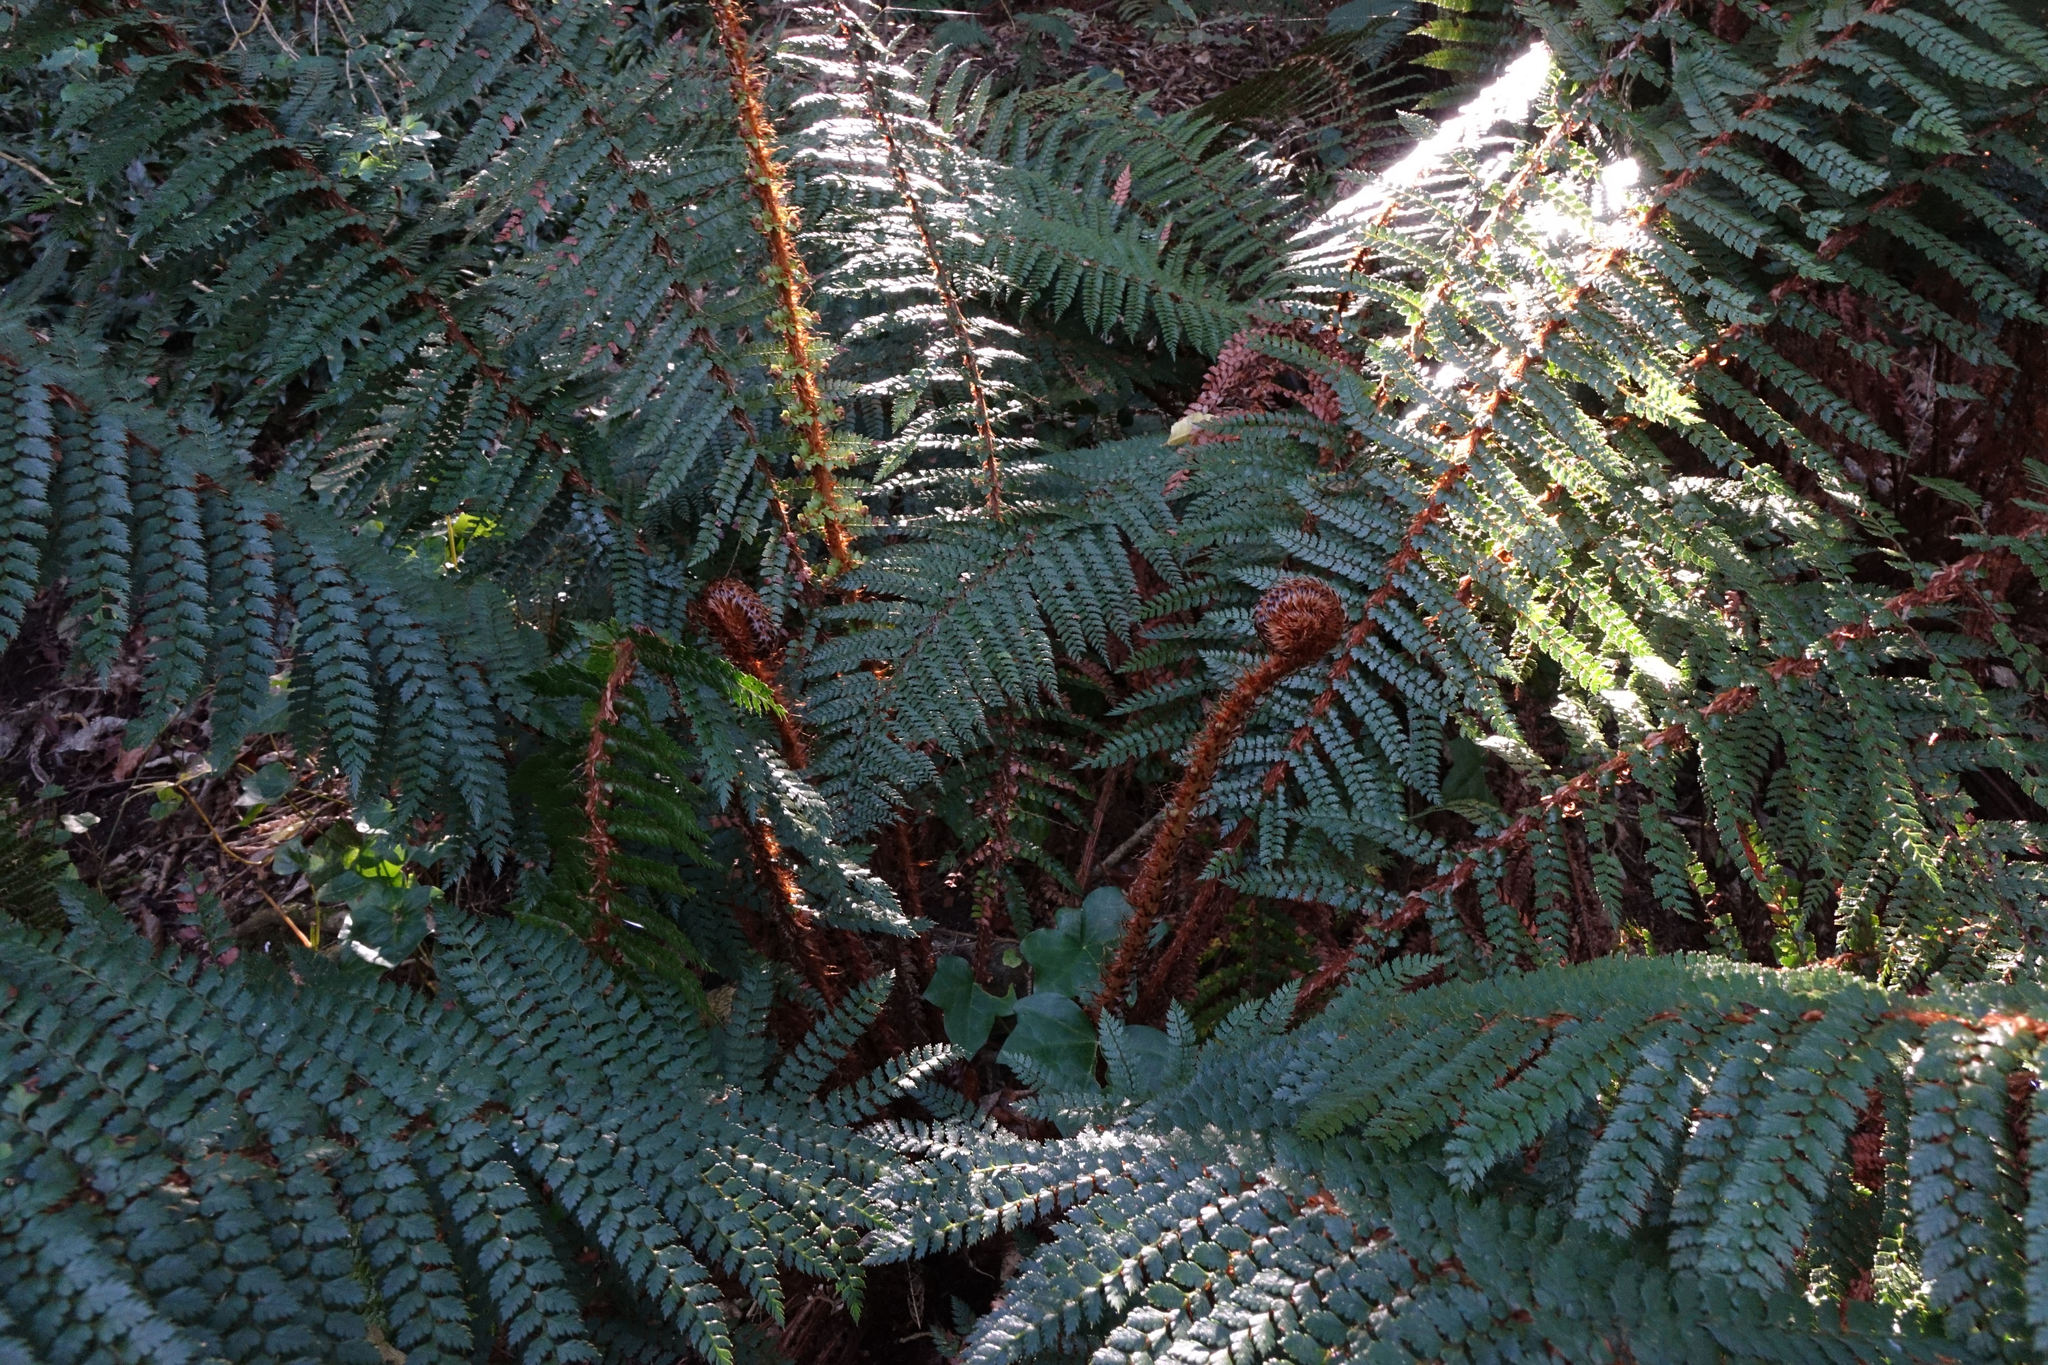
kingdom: Plantae
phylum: Tracheophyta
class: Polypodiopsida
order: Polypodiales
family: Dryopteridaceae
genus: Polystichum
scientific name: Polystichum vestitum
